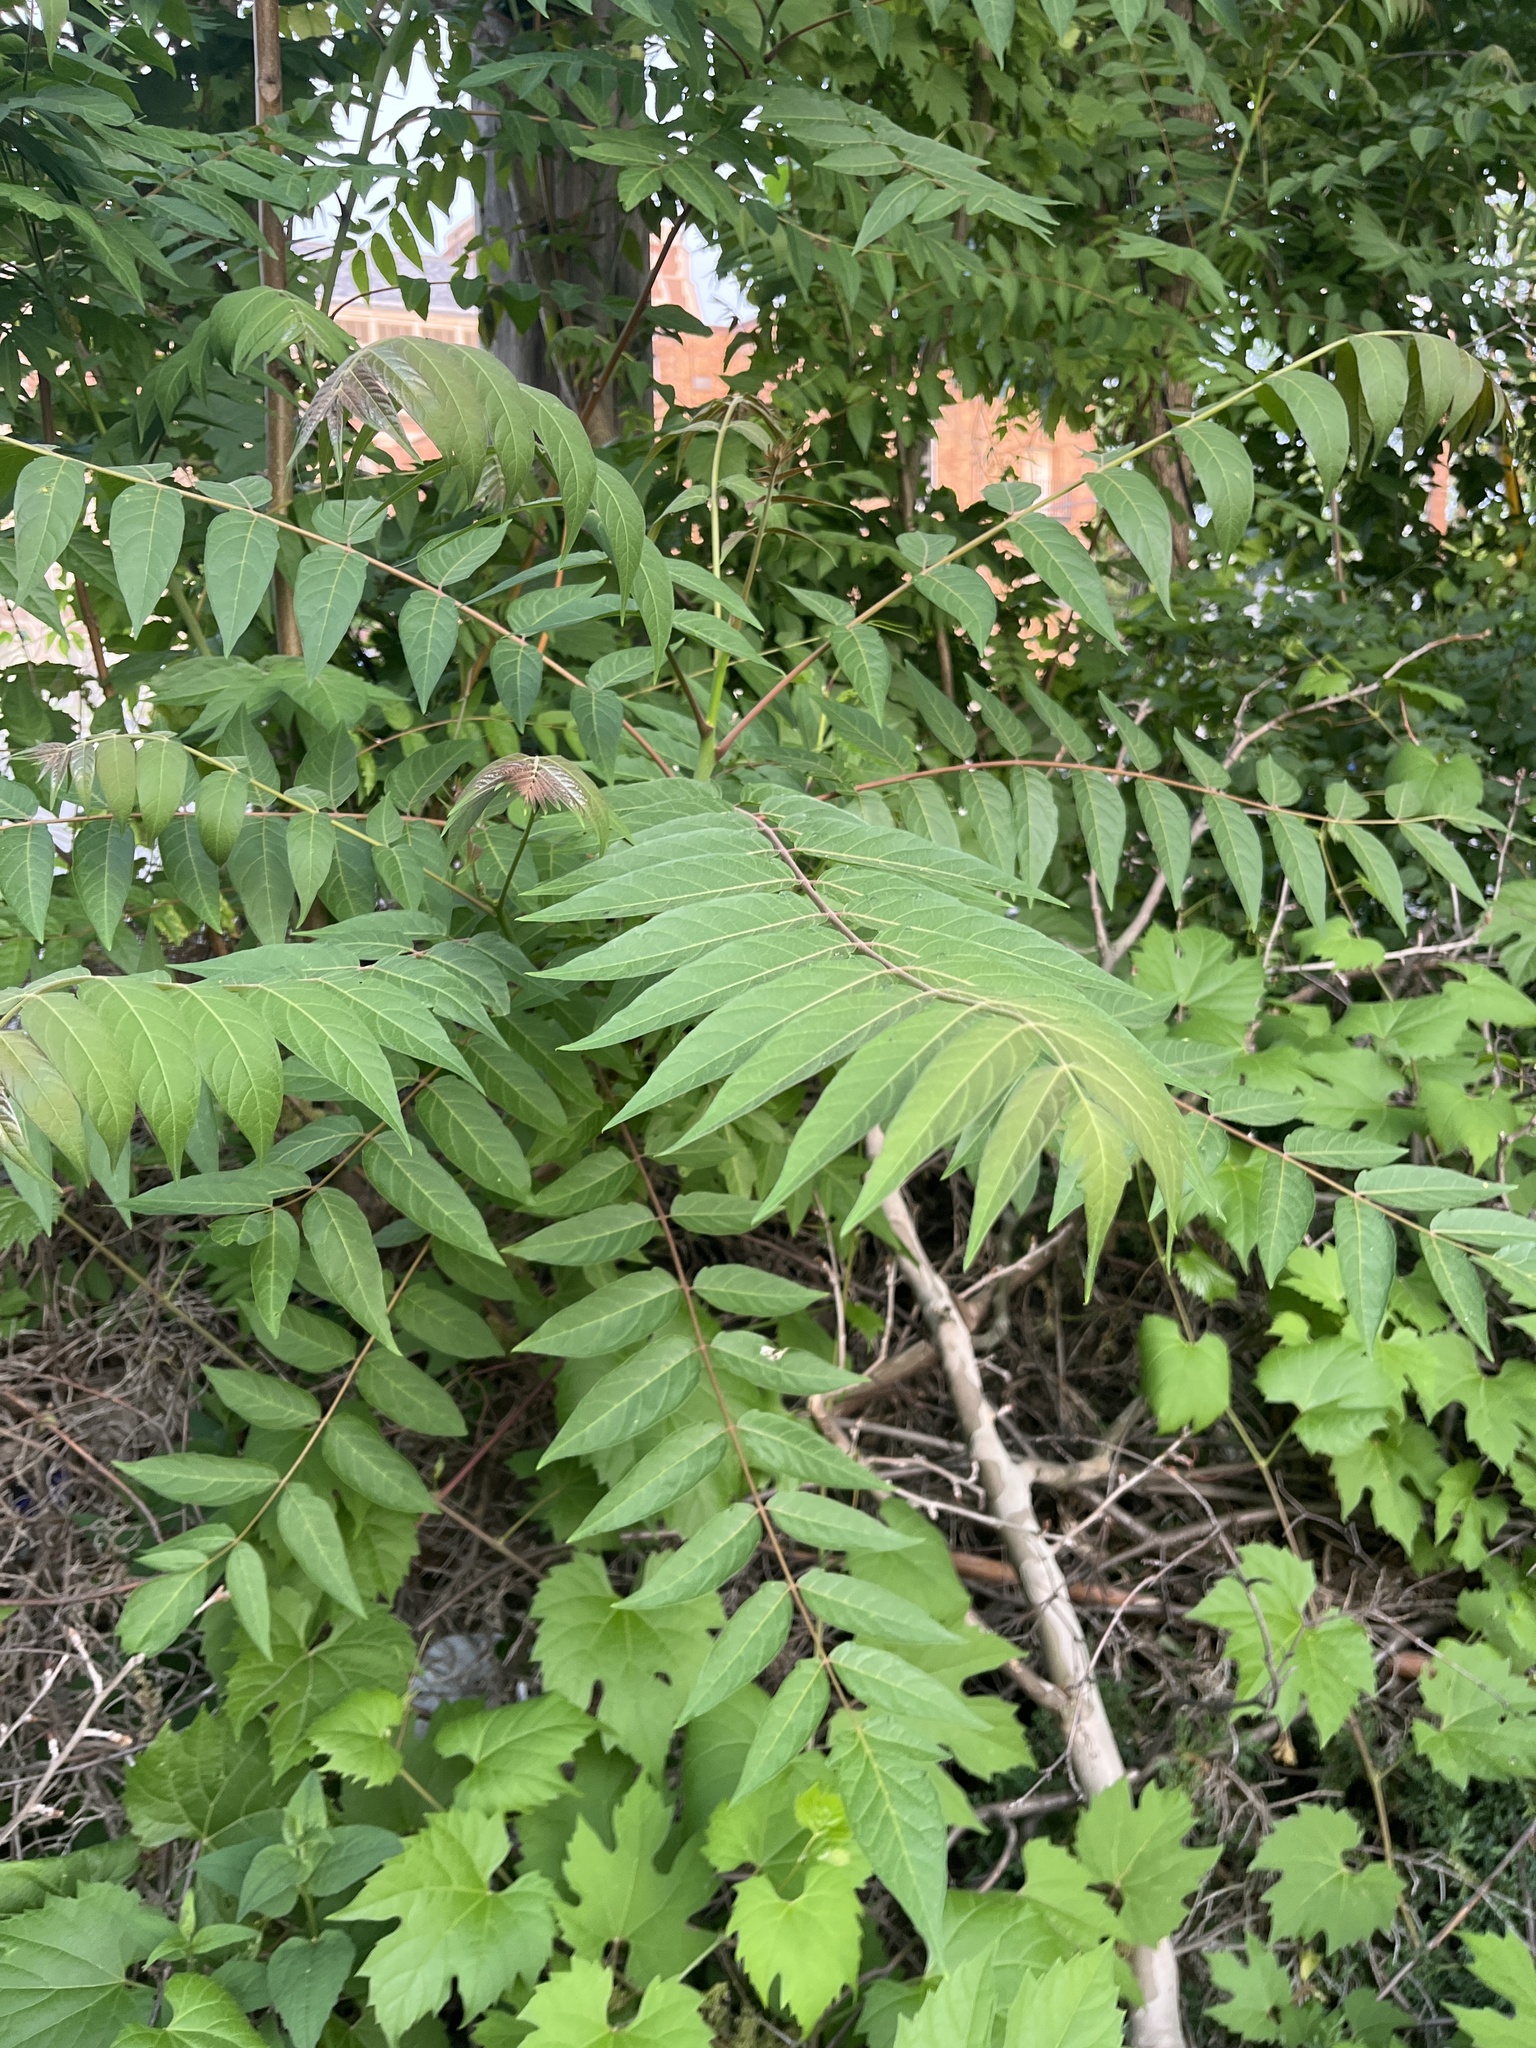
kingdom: Plantae
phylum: Tracheophyta
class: Magnoliopsida
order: Sapindales
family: Simaroubaceae
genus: Ailanthus
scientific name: Ailanthus altissima
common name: Tree-of-heaven
